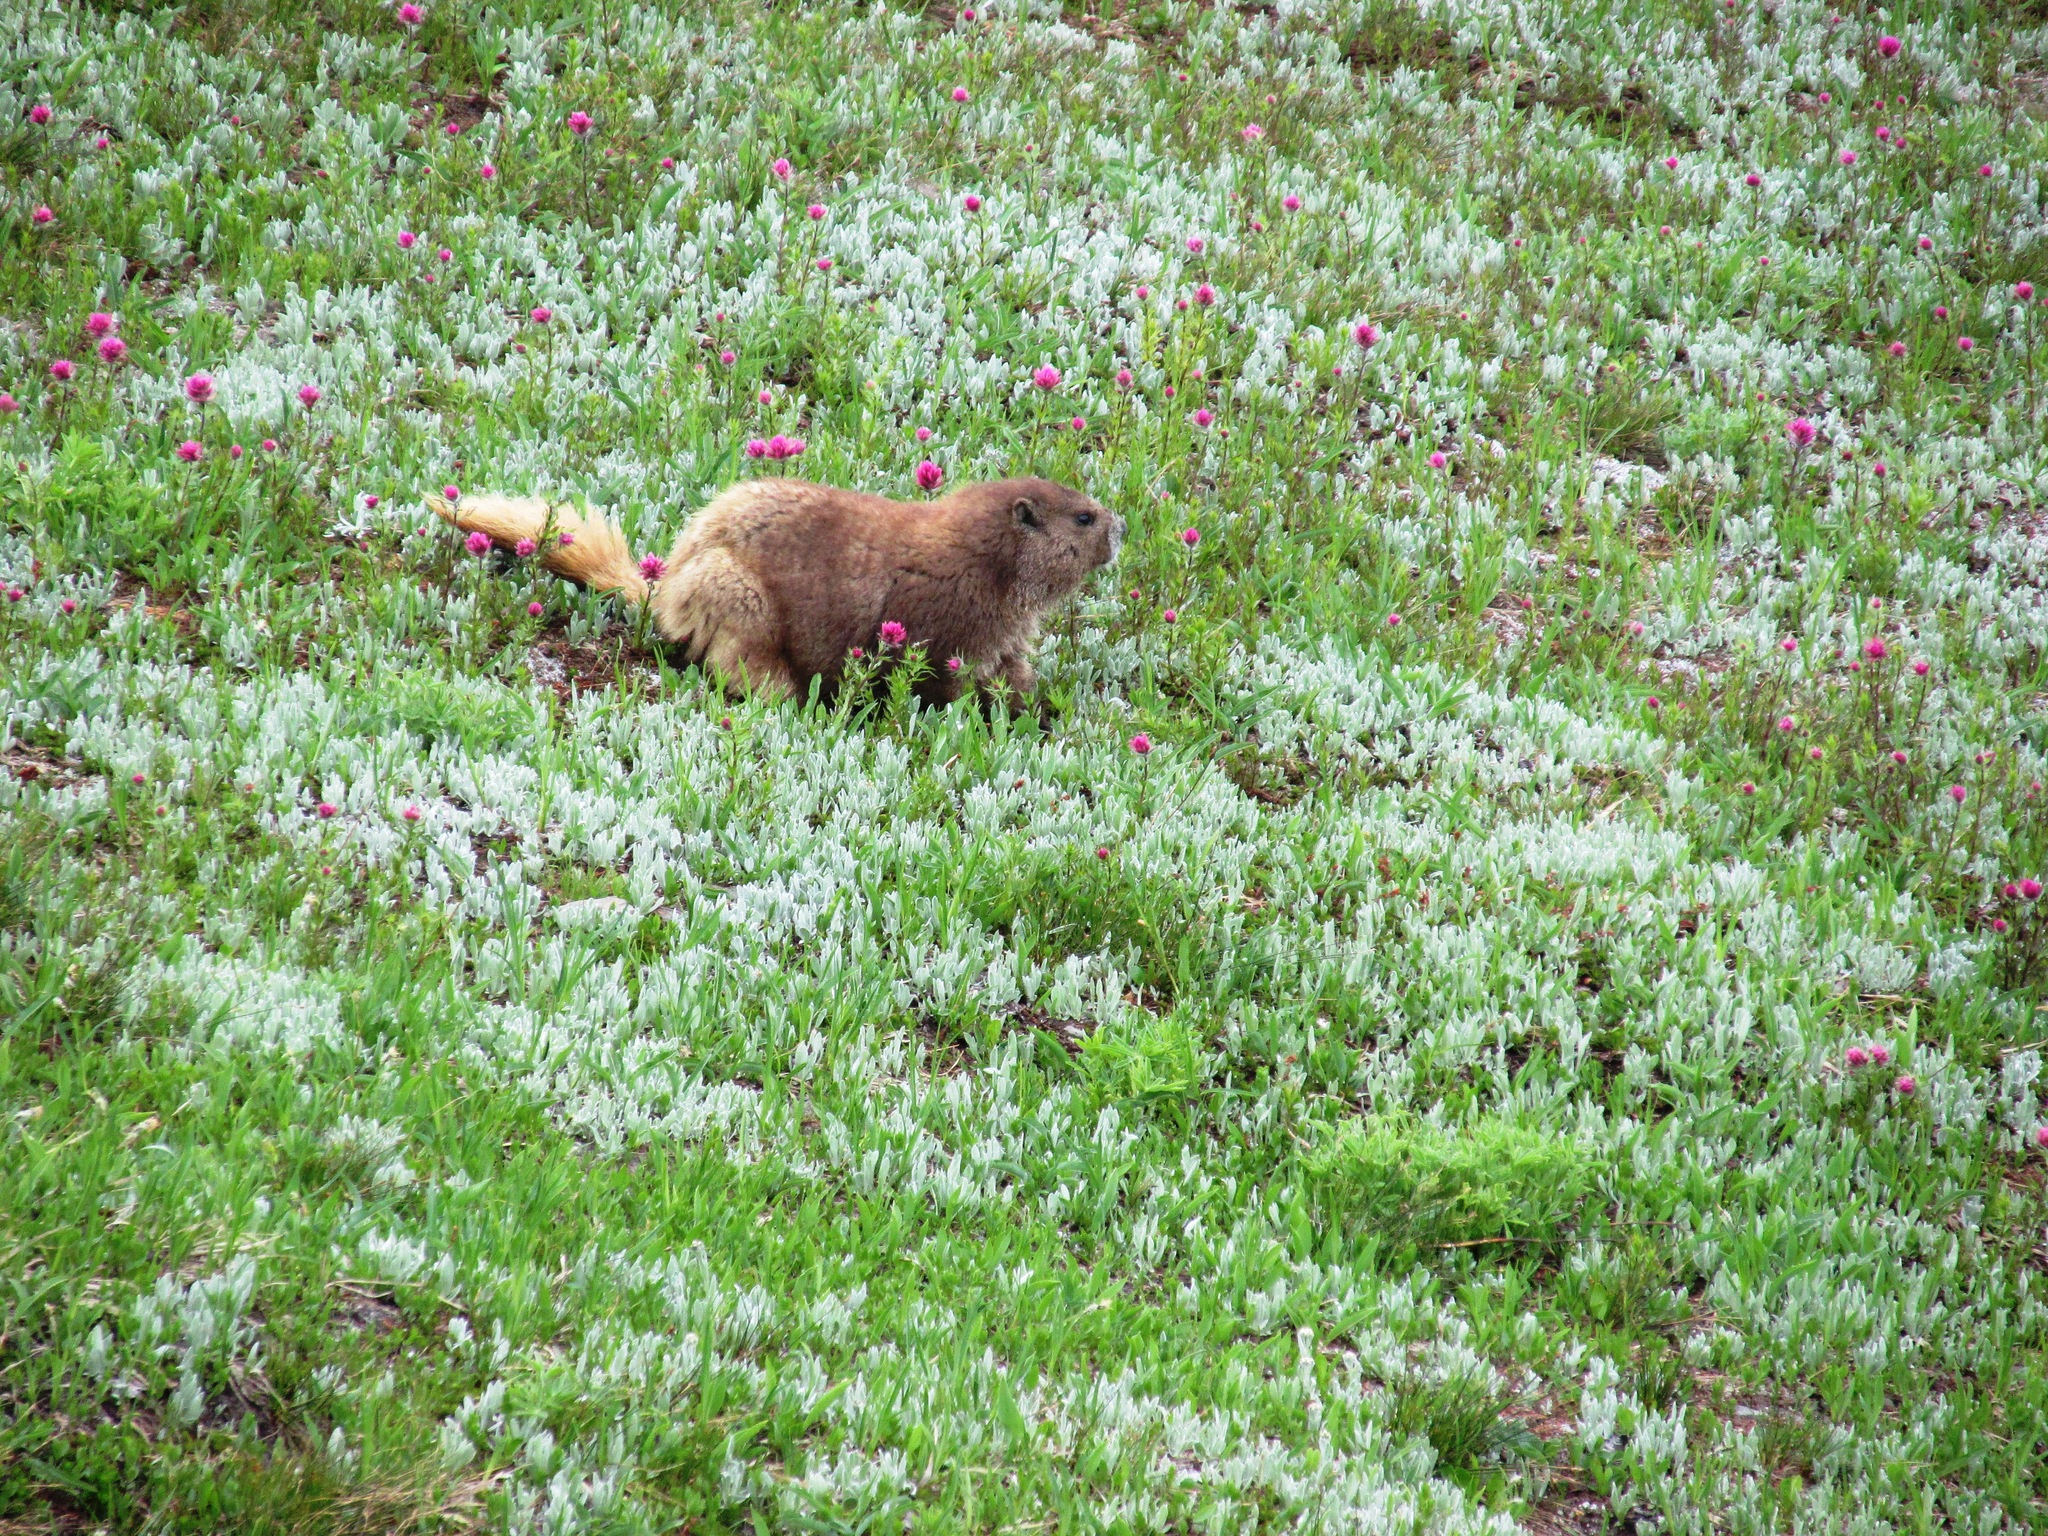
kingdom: Animalia
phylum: Chordata
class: Mammalia
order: Rodentia
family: Sciuridae
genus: Marmota
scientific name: Marmota olympus
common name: Olympic marmot
